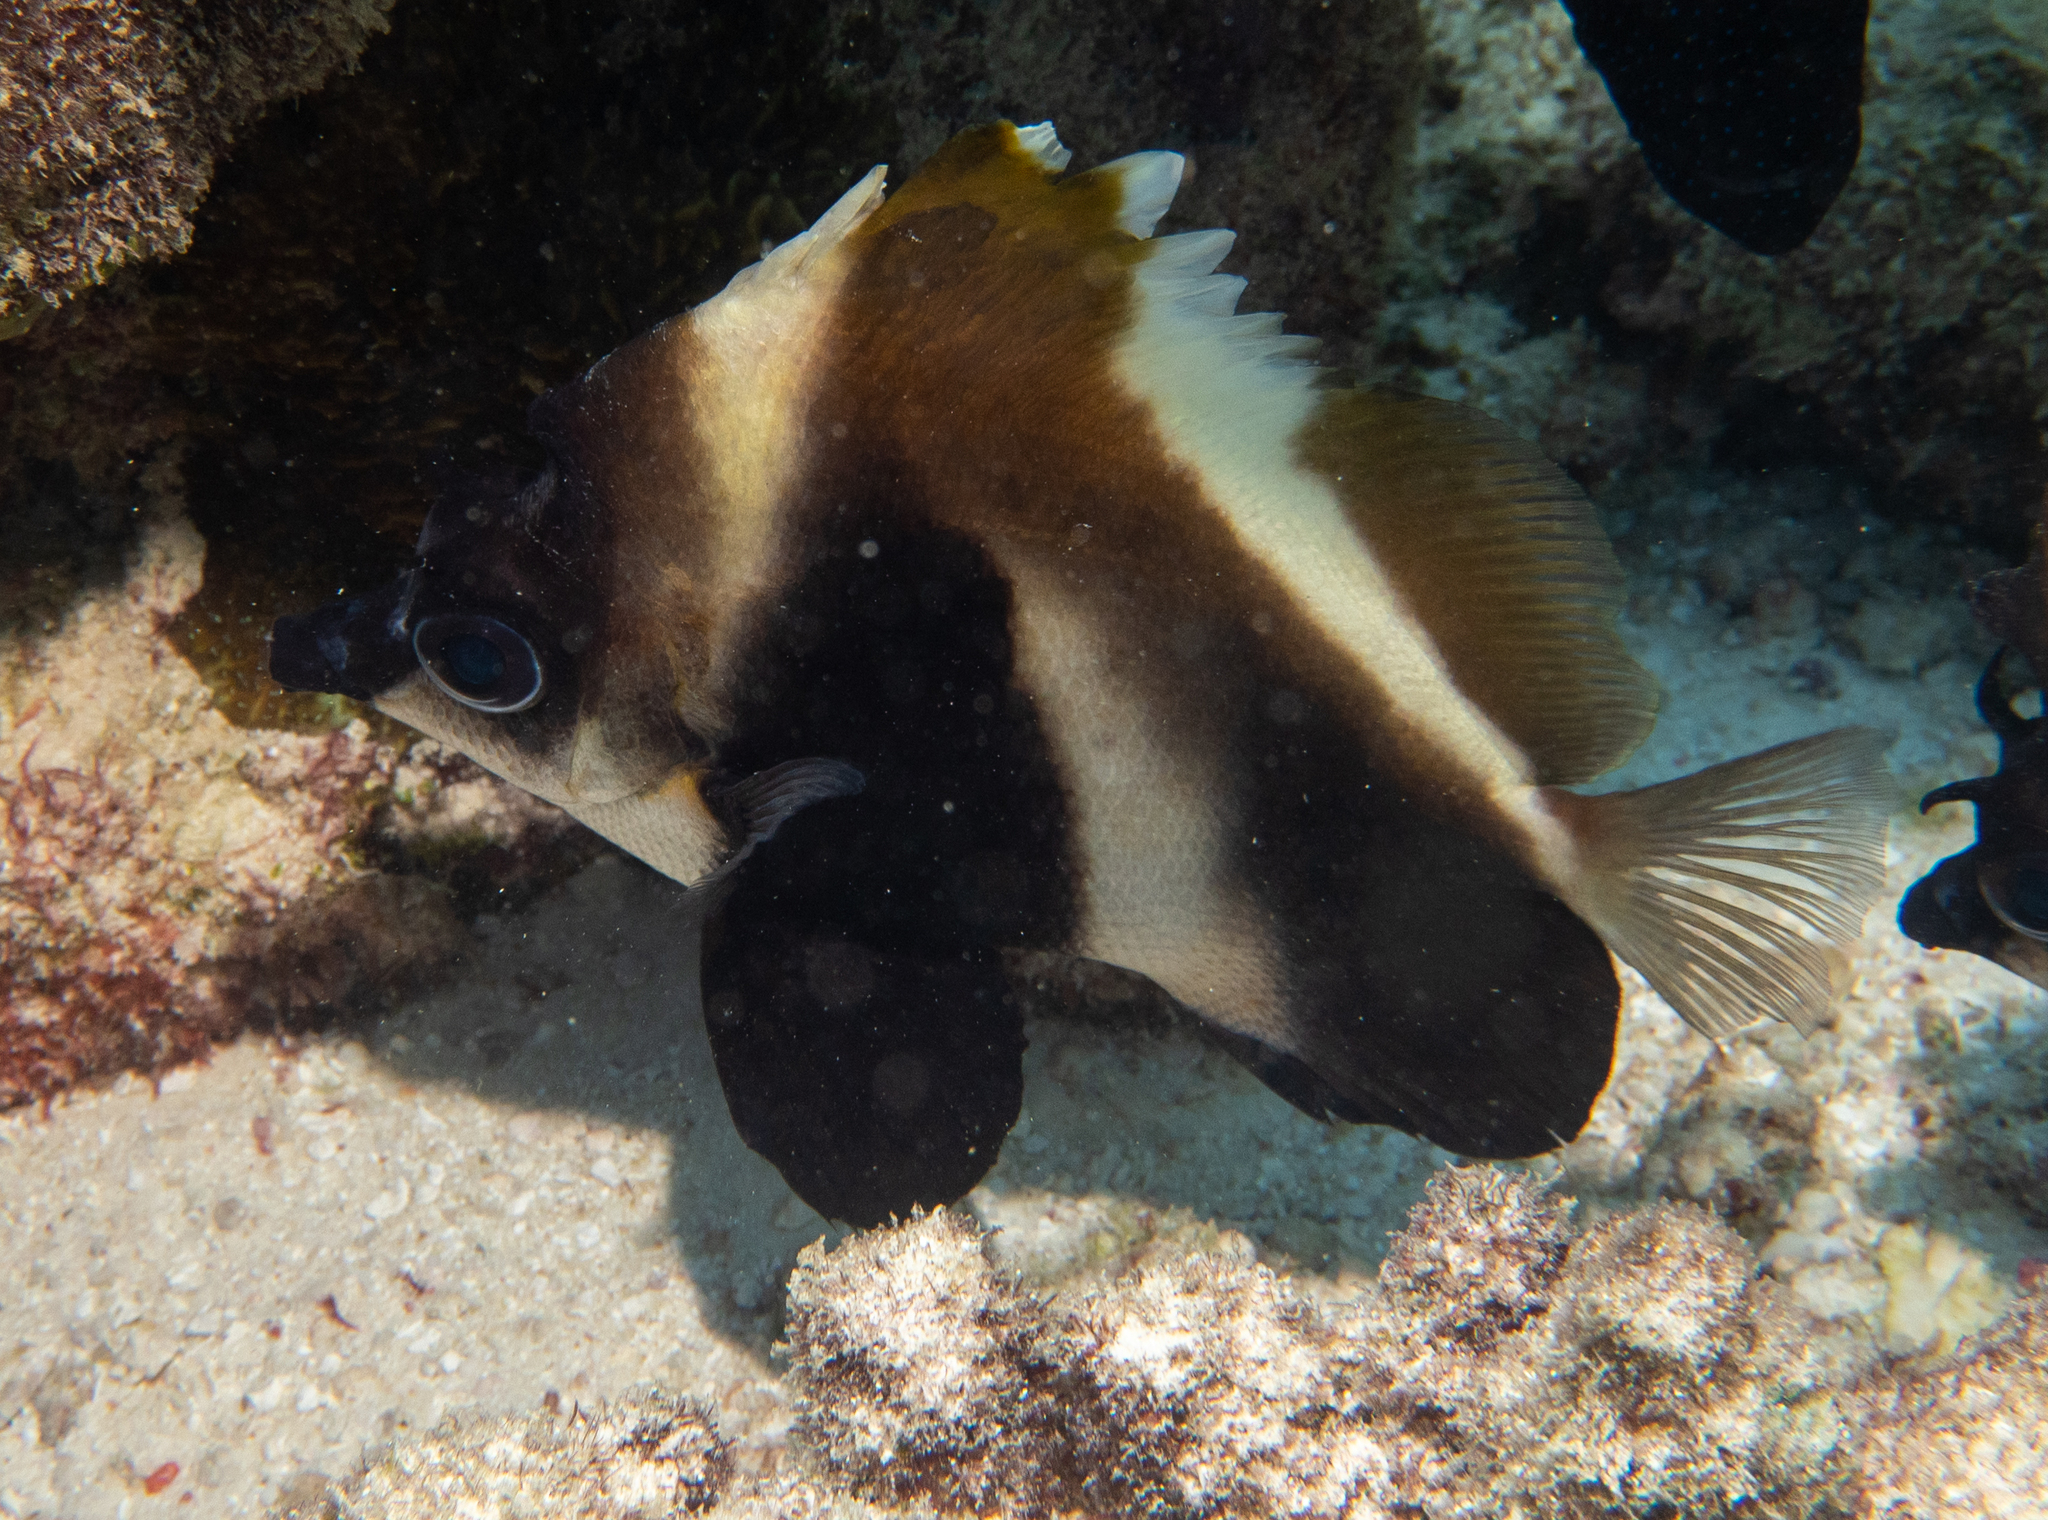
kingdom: Animalia
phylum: Chordata
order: Perciformes
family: Chaetodontidae
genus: Heniochus
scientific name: Heniochus pleurotaenia
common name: Indian ocean bannerfish
